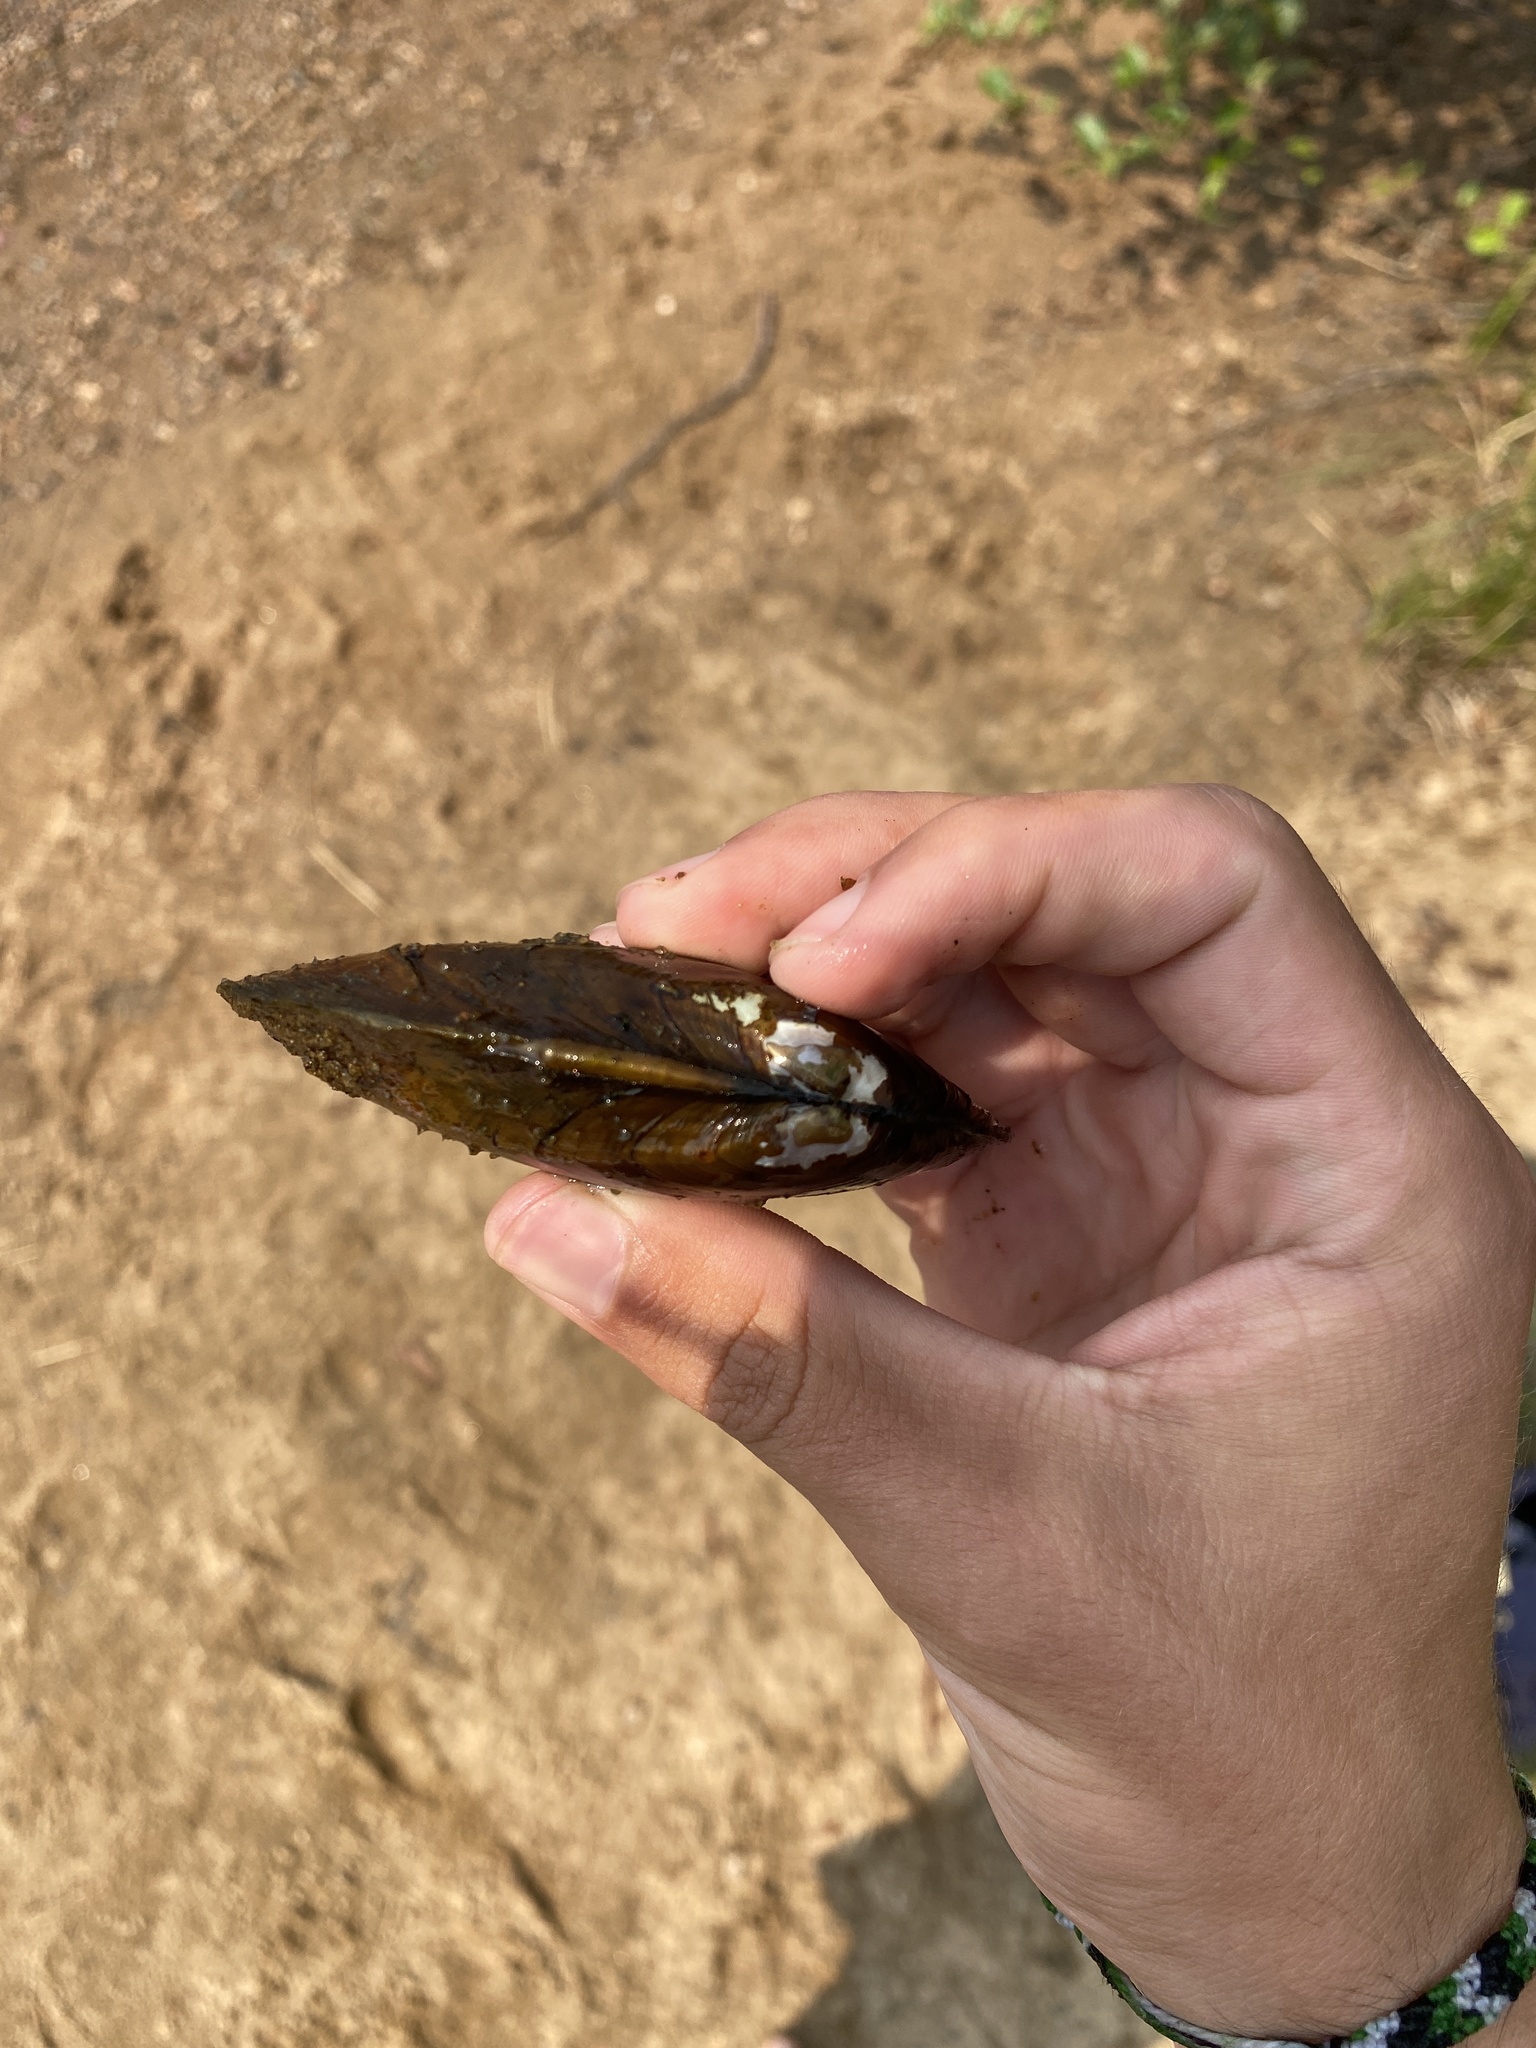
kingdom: Animalia
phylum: Mollusca
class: Bivalvia
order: Unionida
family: Unionidae
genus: Elliptio
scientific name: Elliptio complanata
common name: Eastern elliptio
